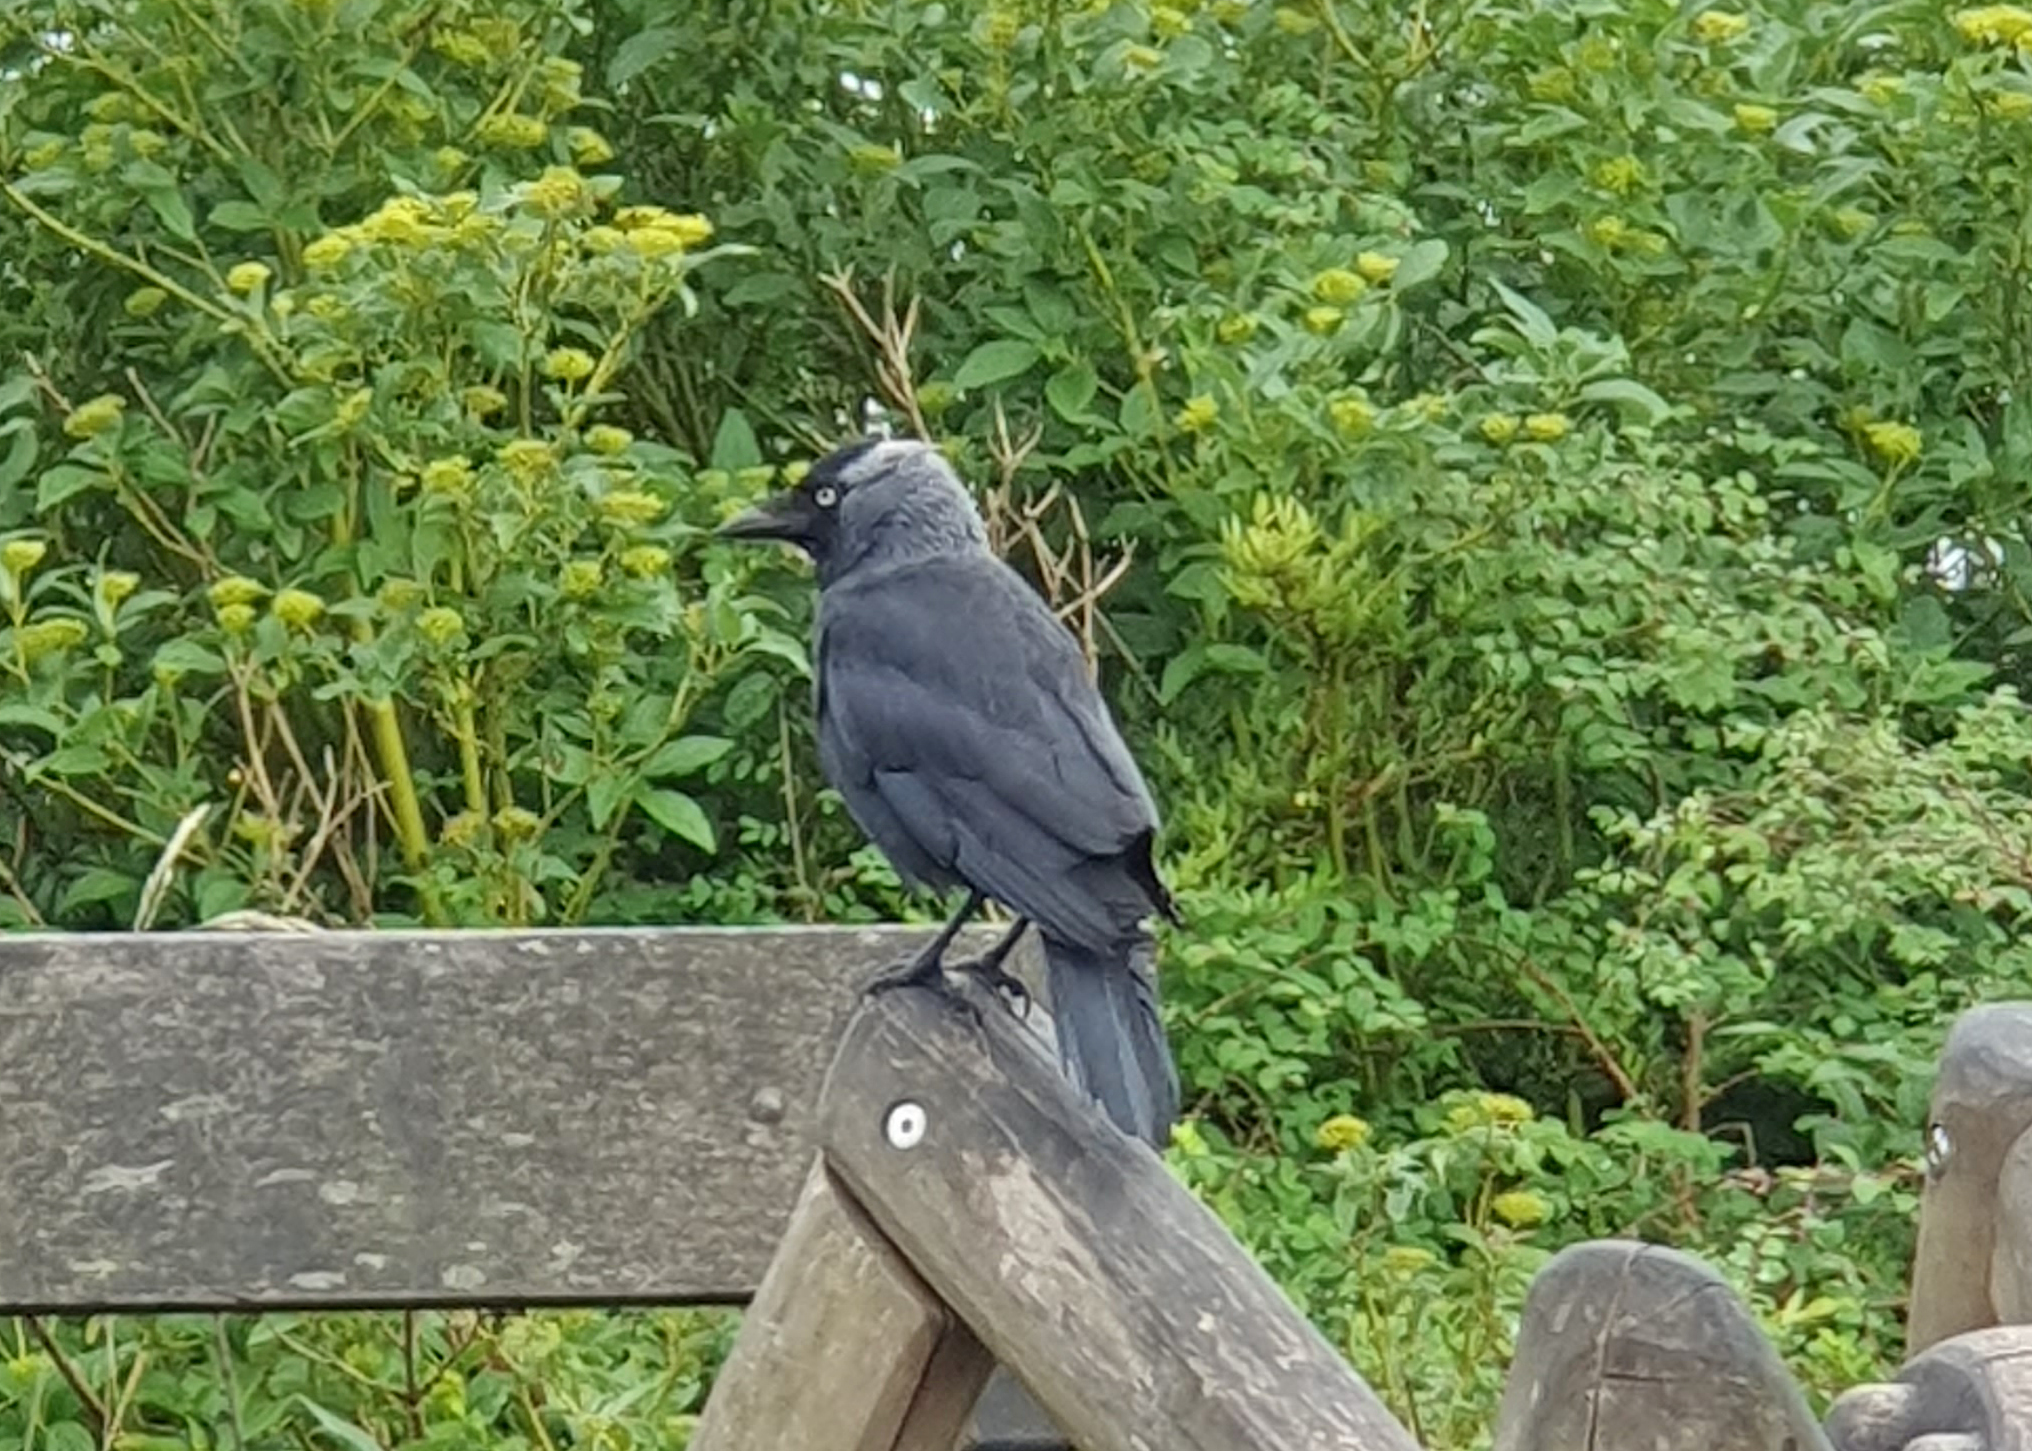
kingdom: Animalia
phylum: Chordata
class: Aves
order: Passeriformes
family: Corvidae
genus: Coloeus
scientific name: Coloeus monedula
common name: Western jackdaw
